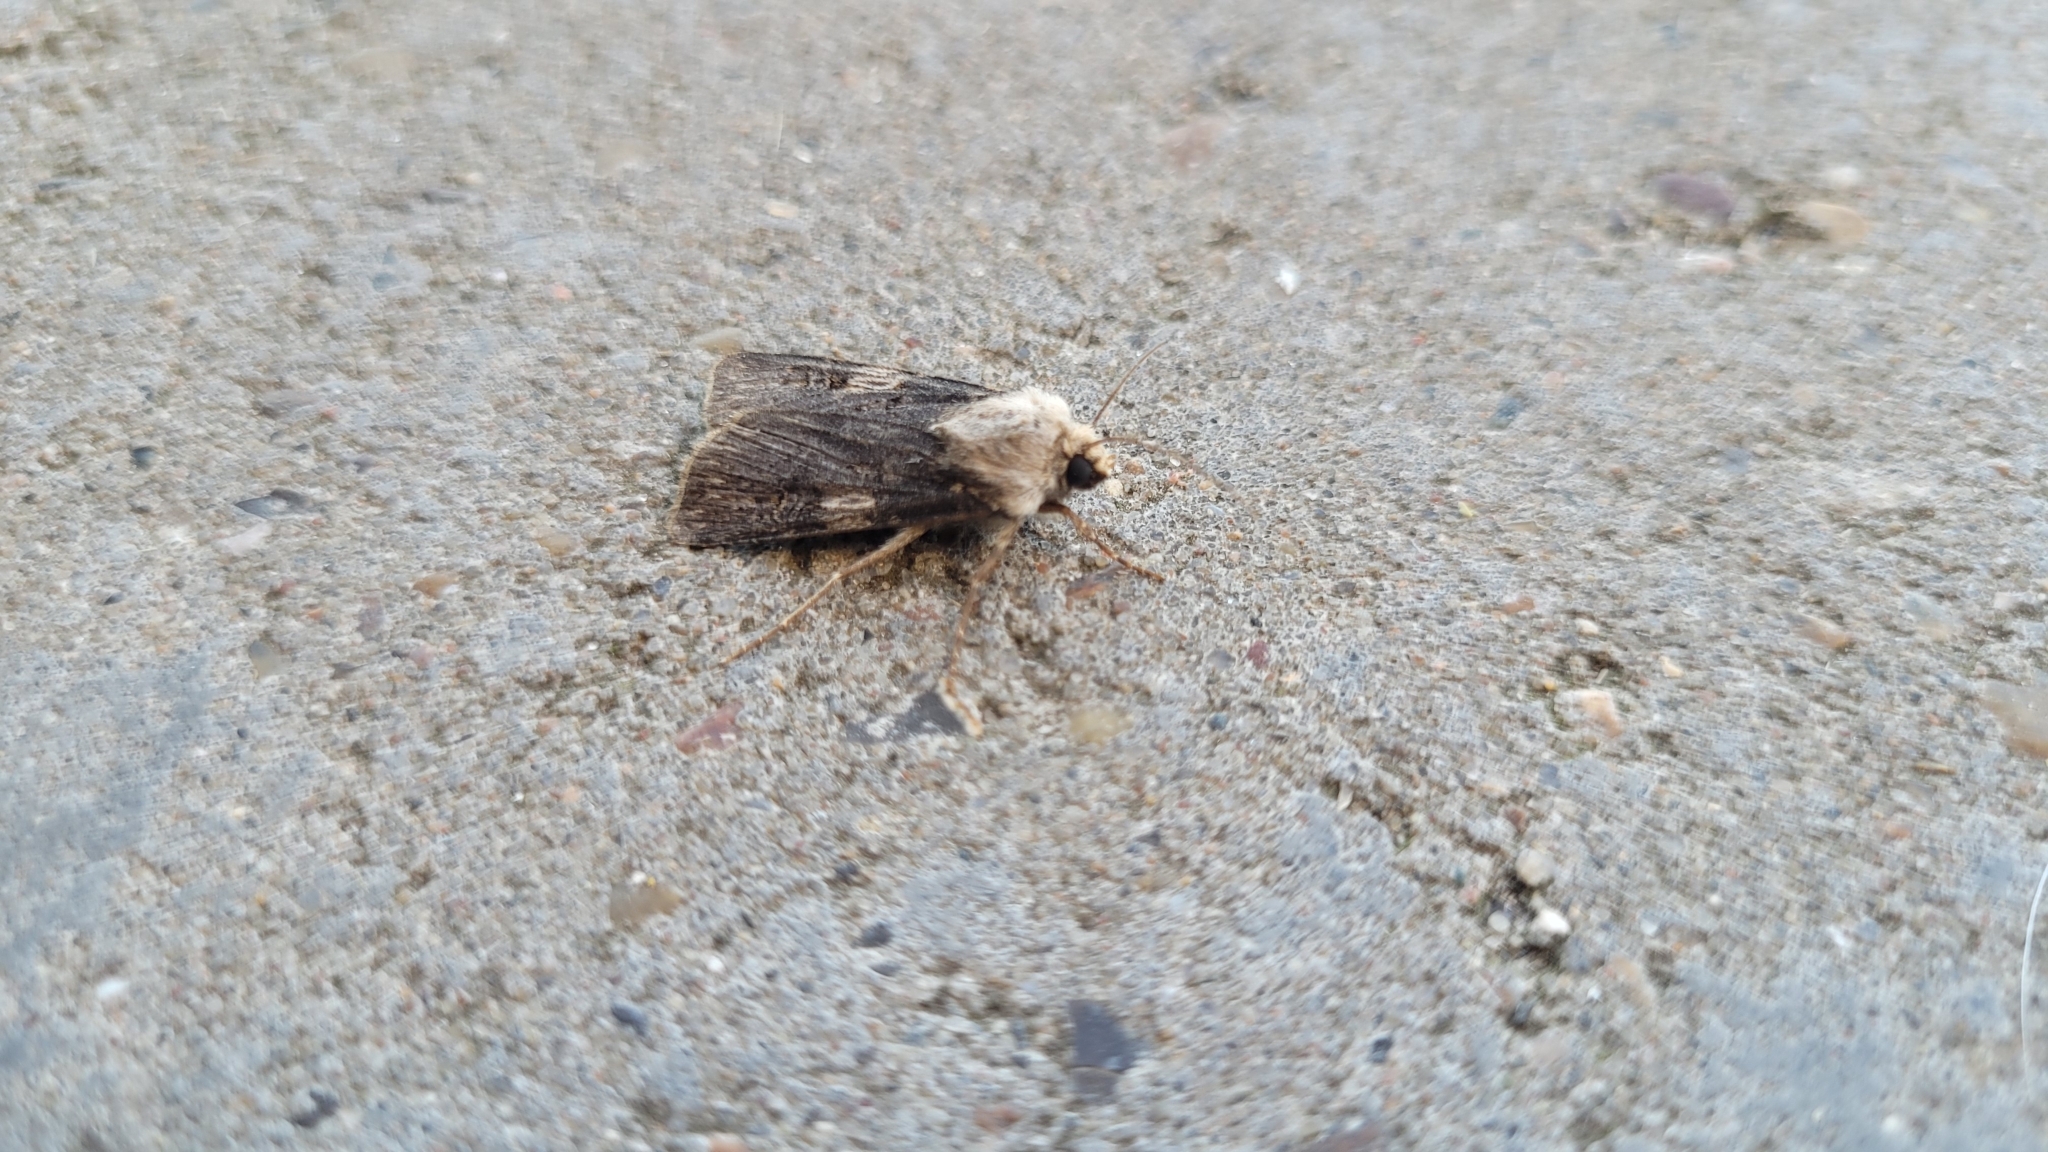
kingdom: Animalia
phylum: Arthropoda
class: Insecta
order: Lepidoptera
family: Noctuidae
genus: Agrotis
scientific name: Agrotis puta
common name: Shuttle-shaped dart
